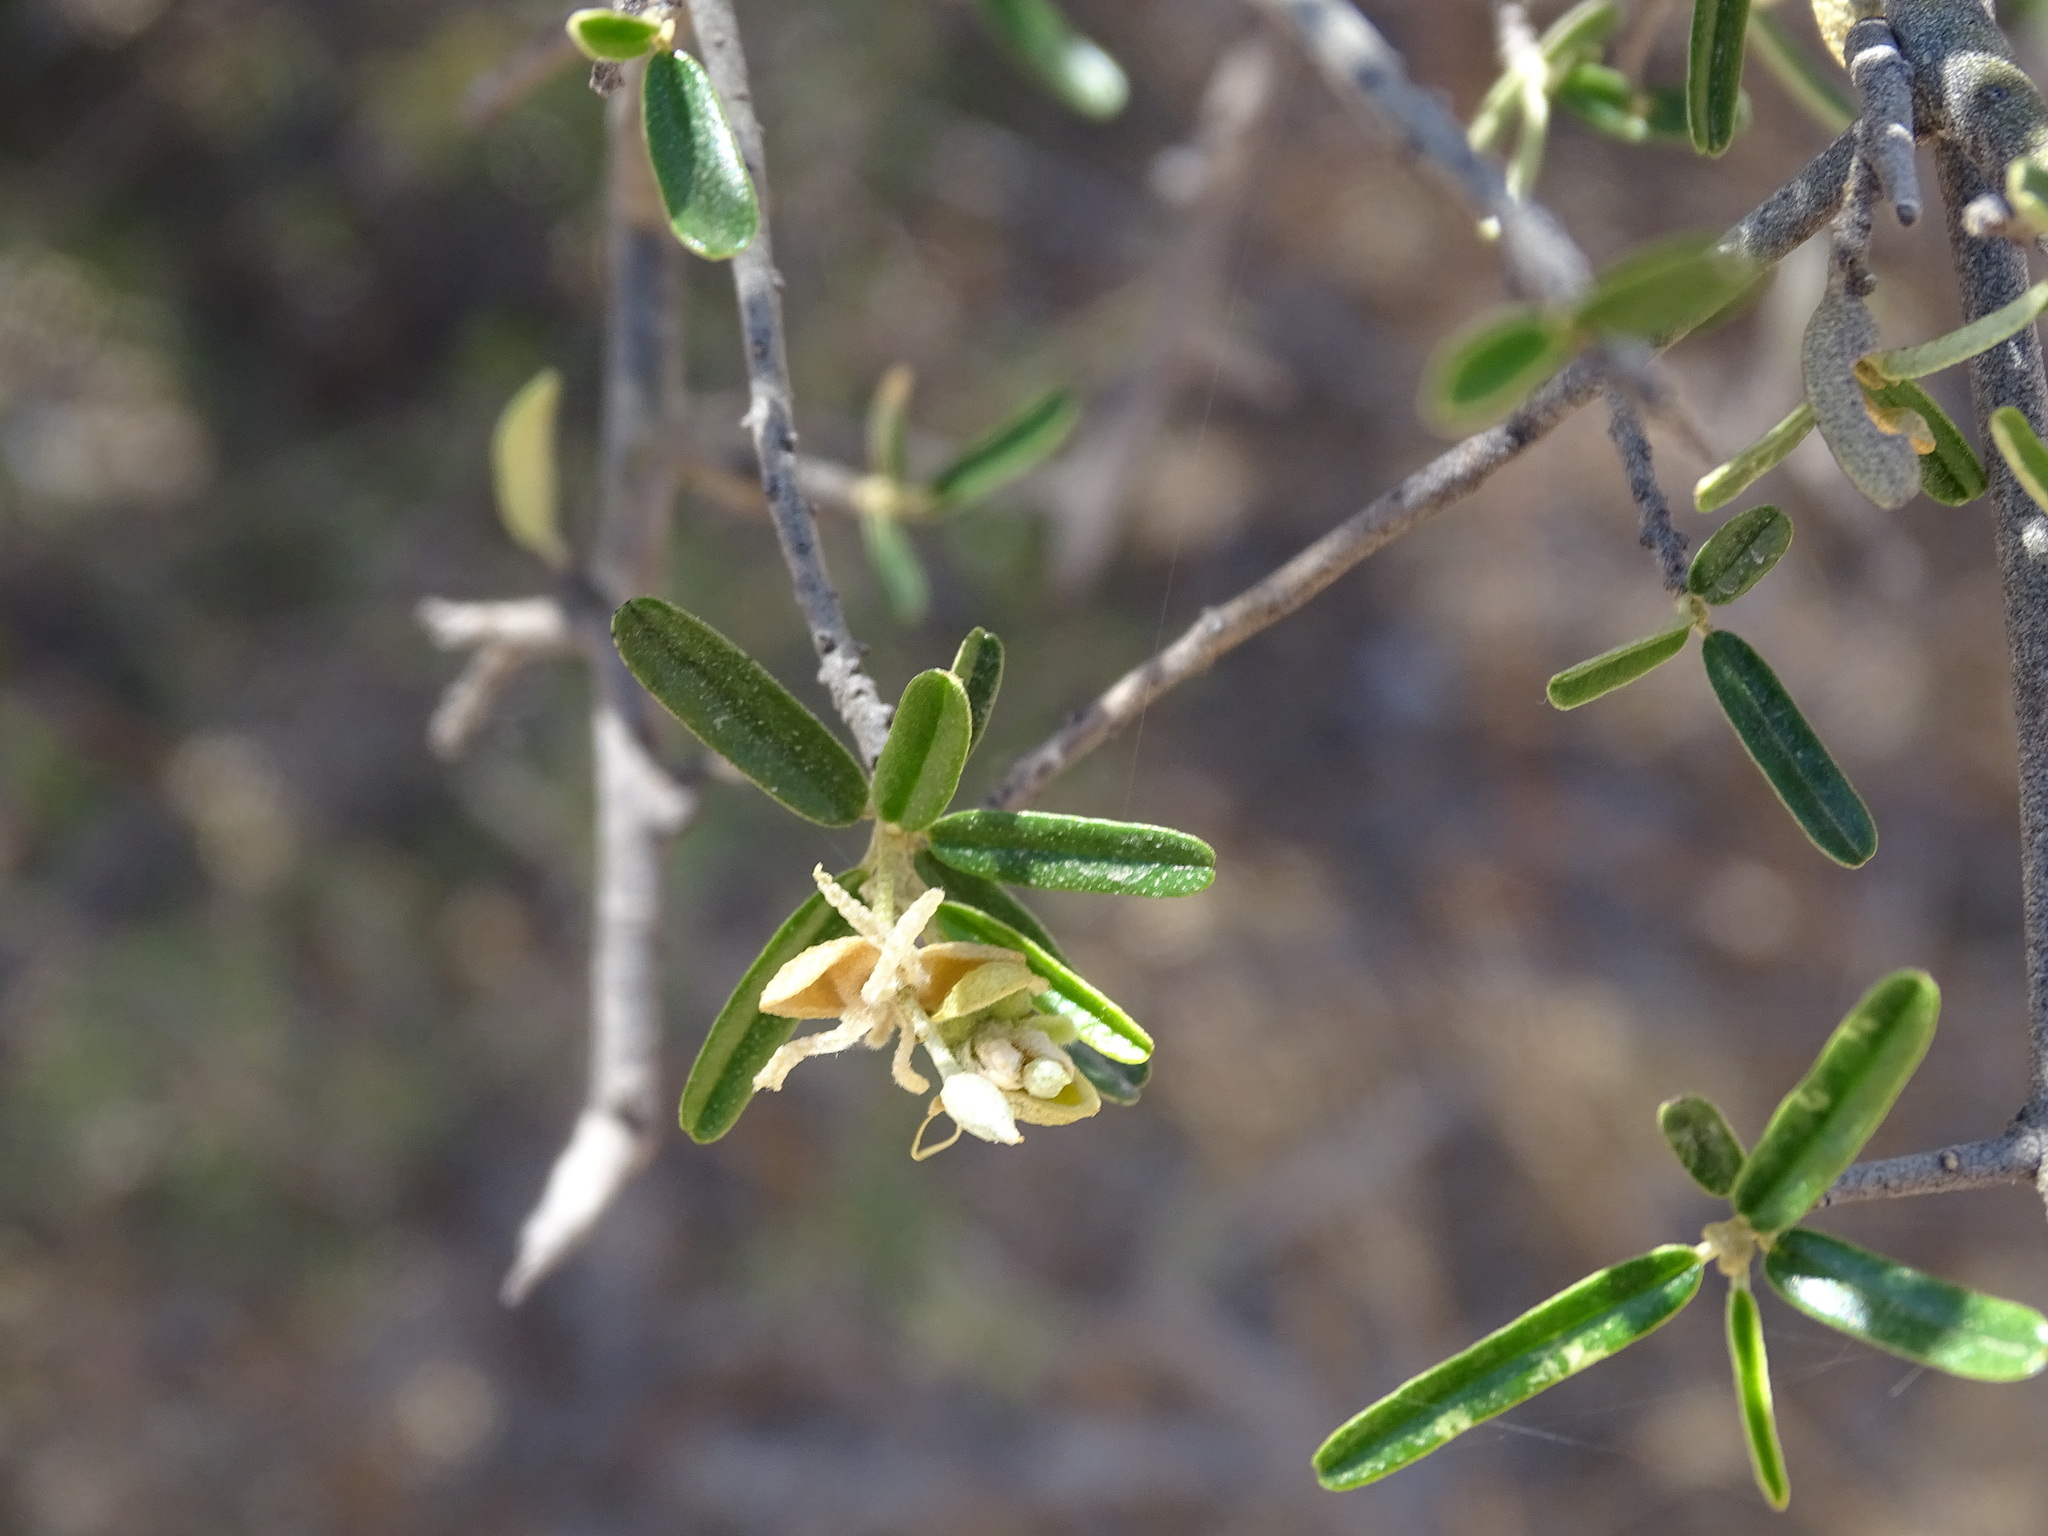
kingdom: Plantae
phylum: Tracheophyta
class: Magnoliopsida
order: Brassicales
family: Capparaceae
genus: Atamisquea
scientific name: Atamisquea emarginata
